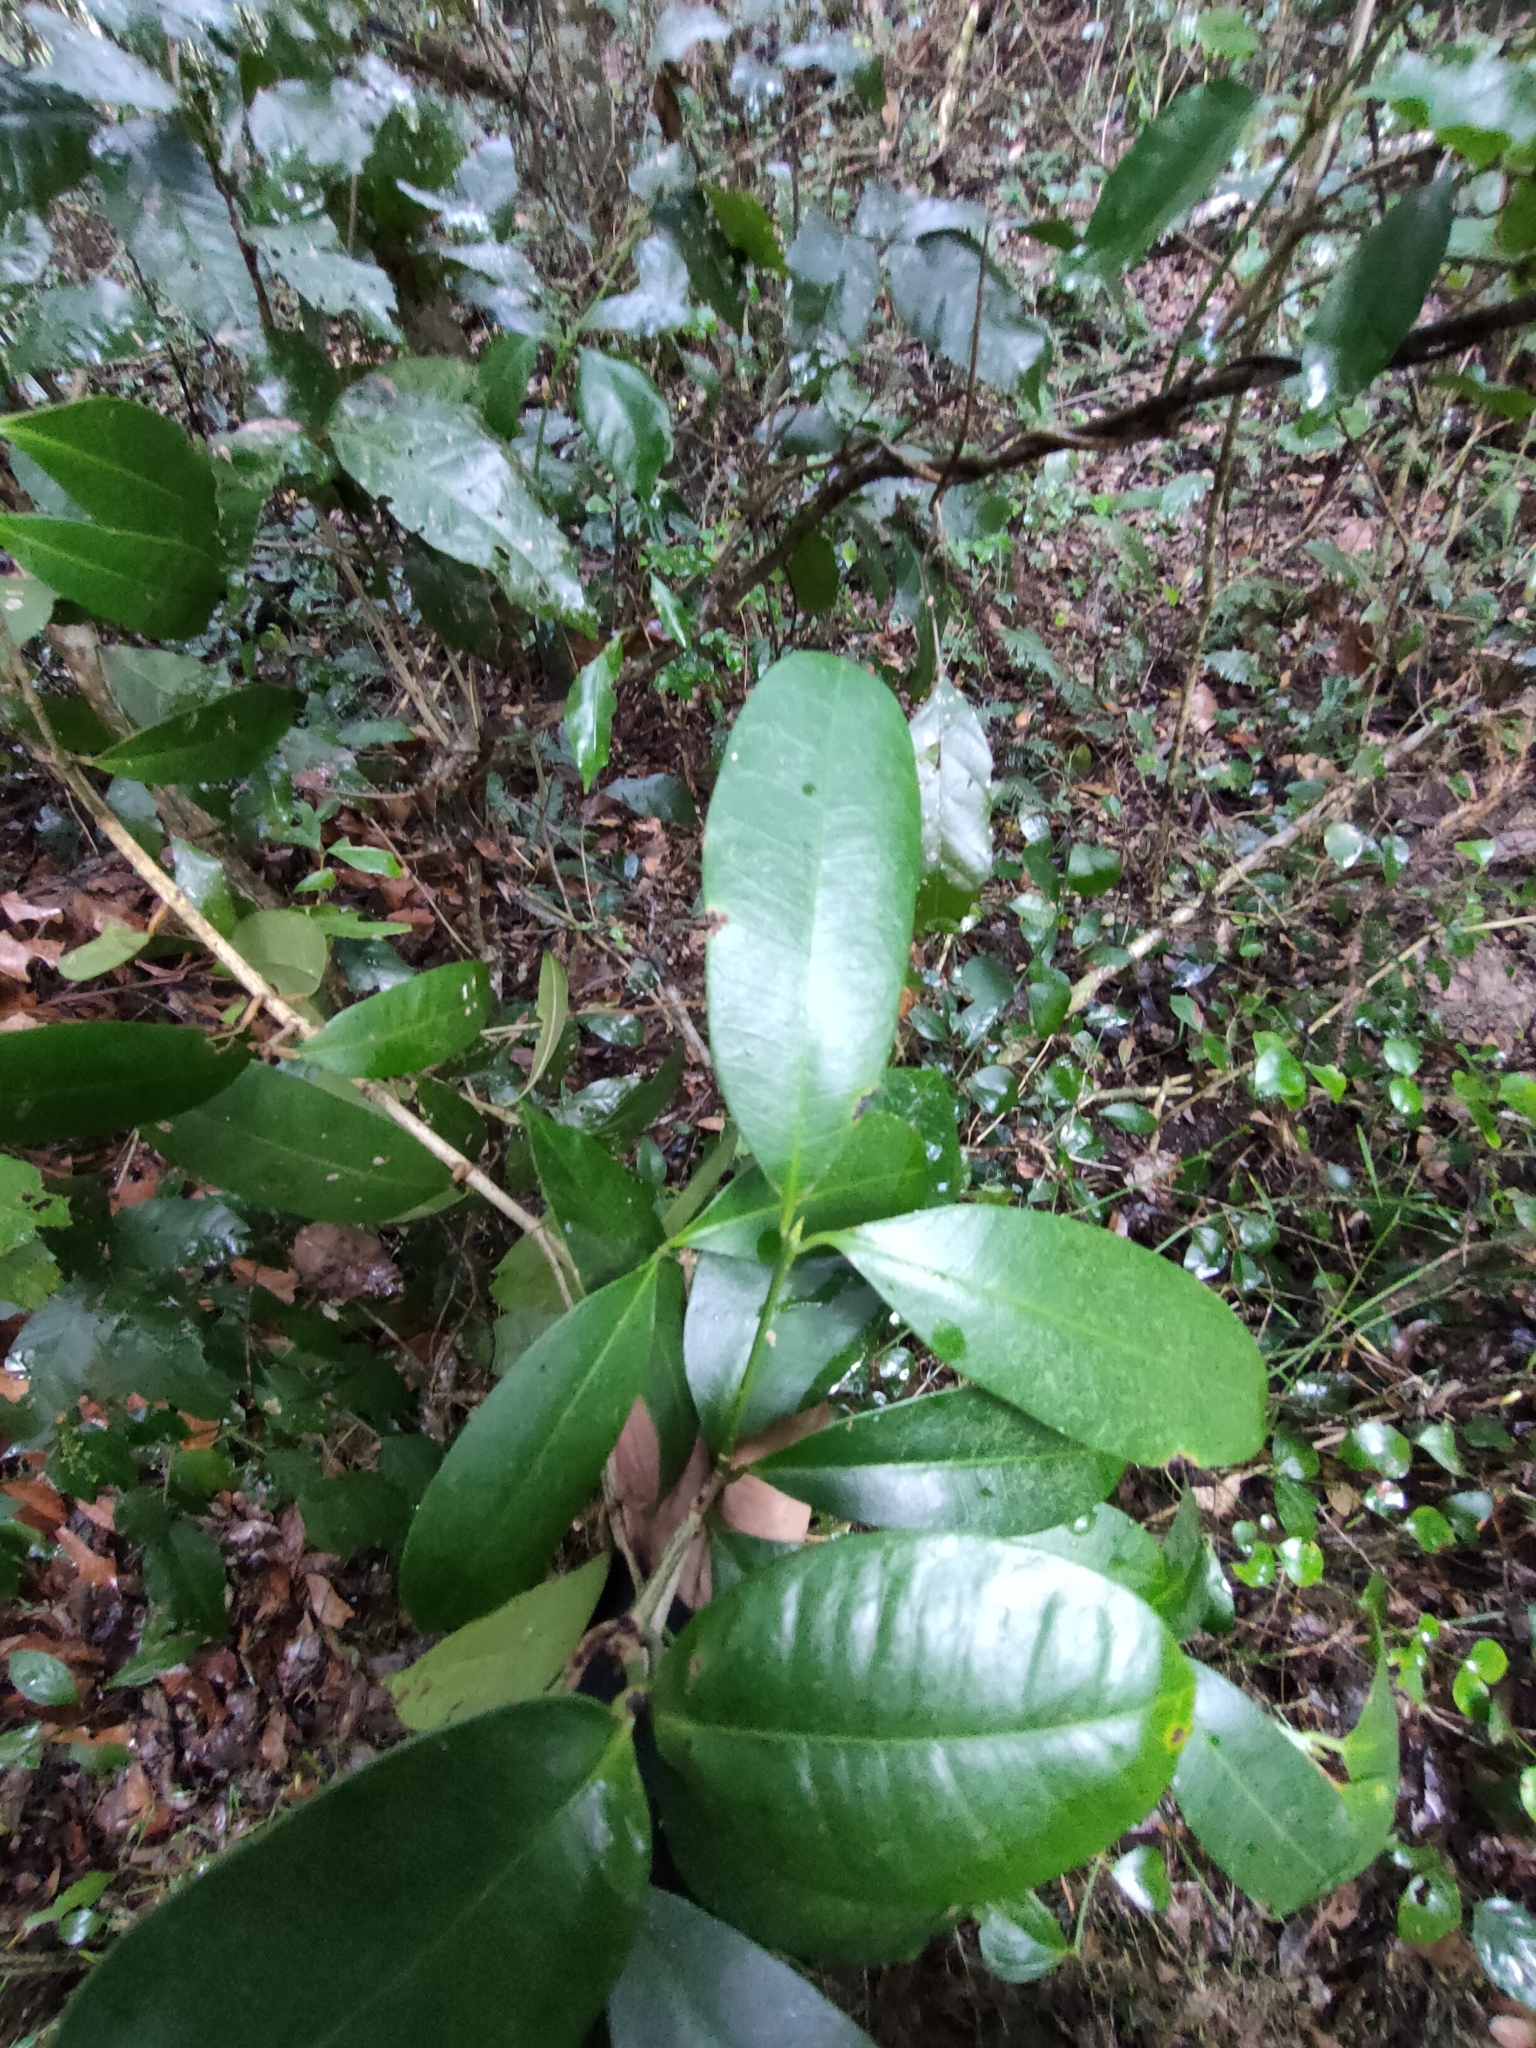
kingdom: Plantae
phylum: Tracheophyta
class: Magnoliopsida
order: Malpighiales
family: Euphorbiaceae
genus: Baloghia
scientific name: Baloghia inophylla
